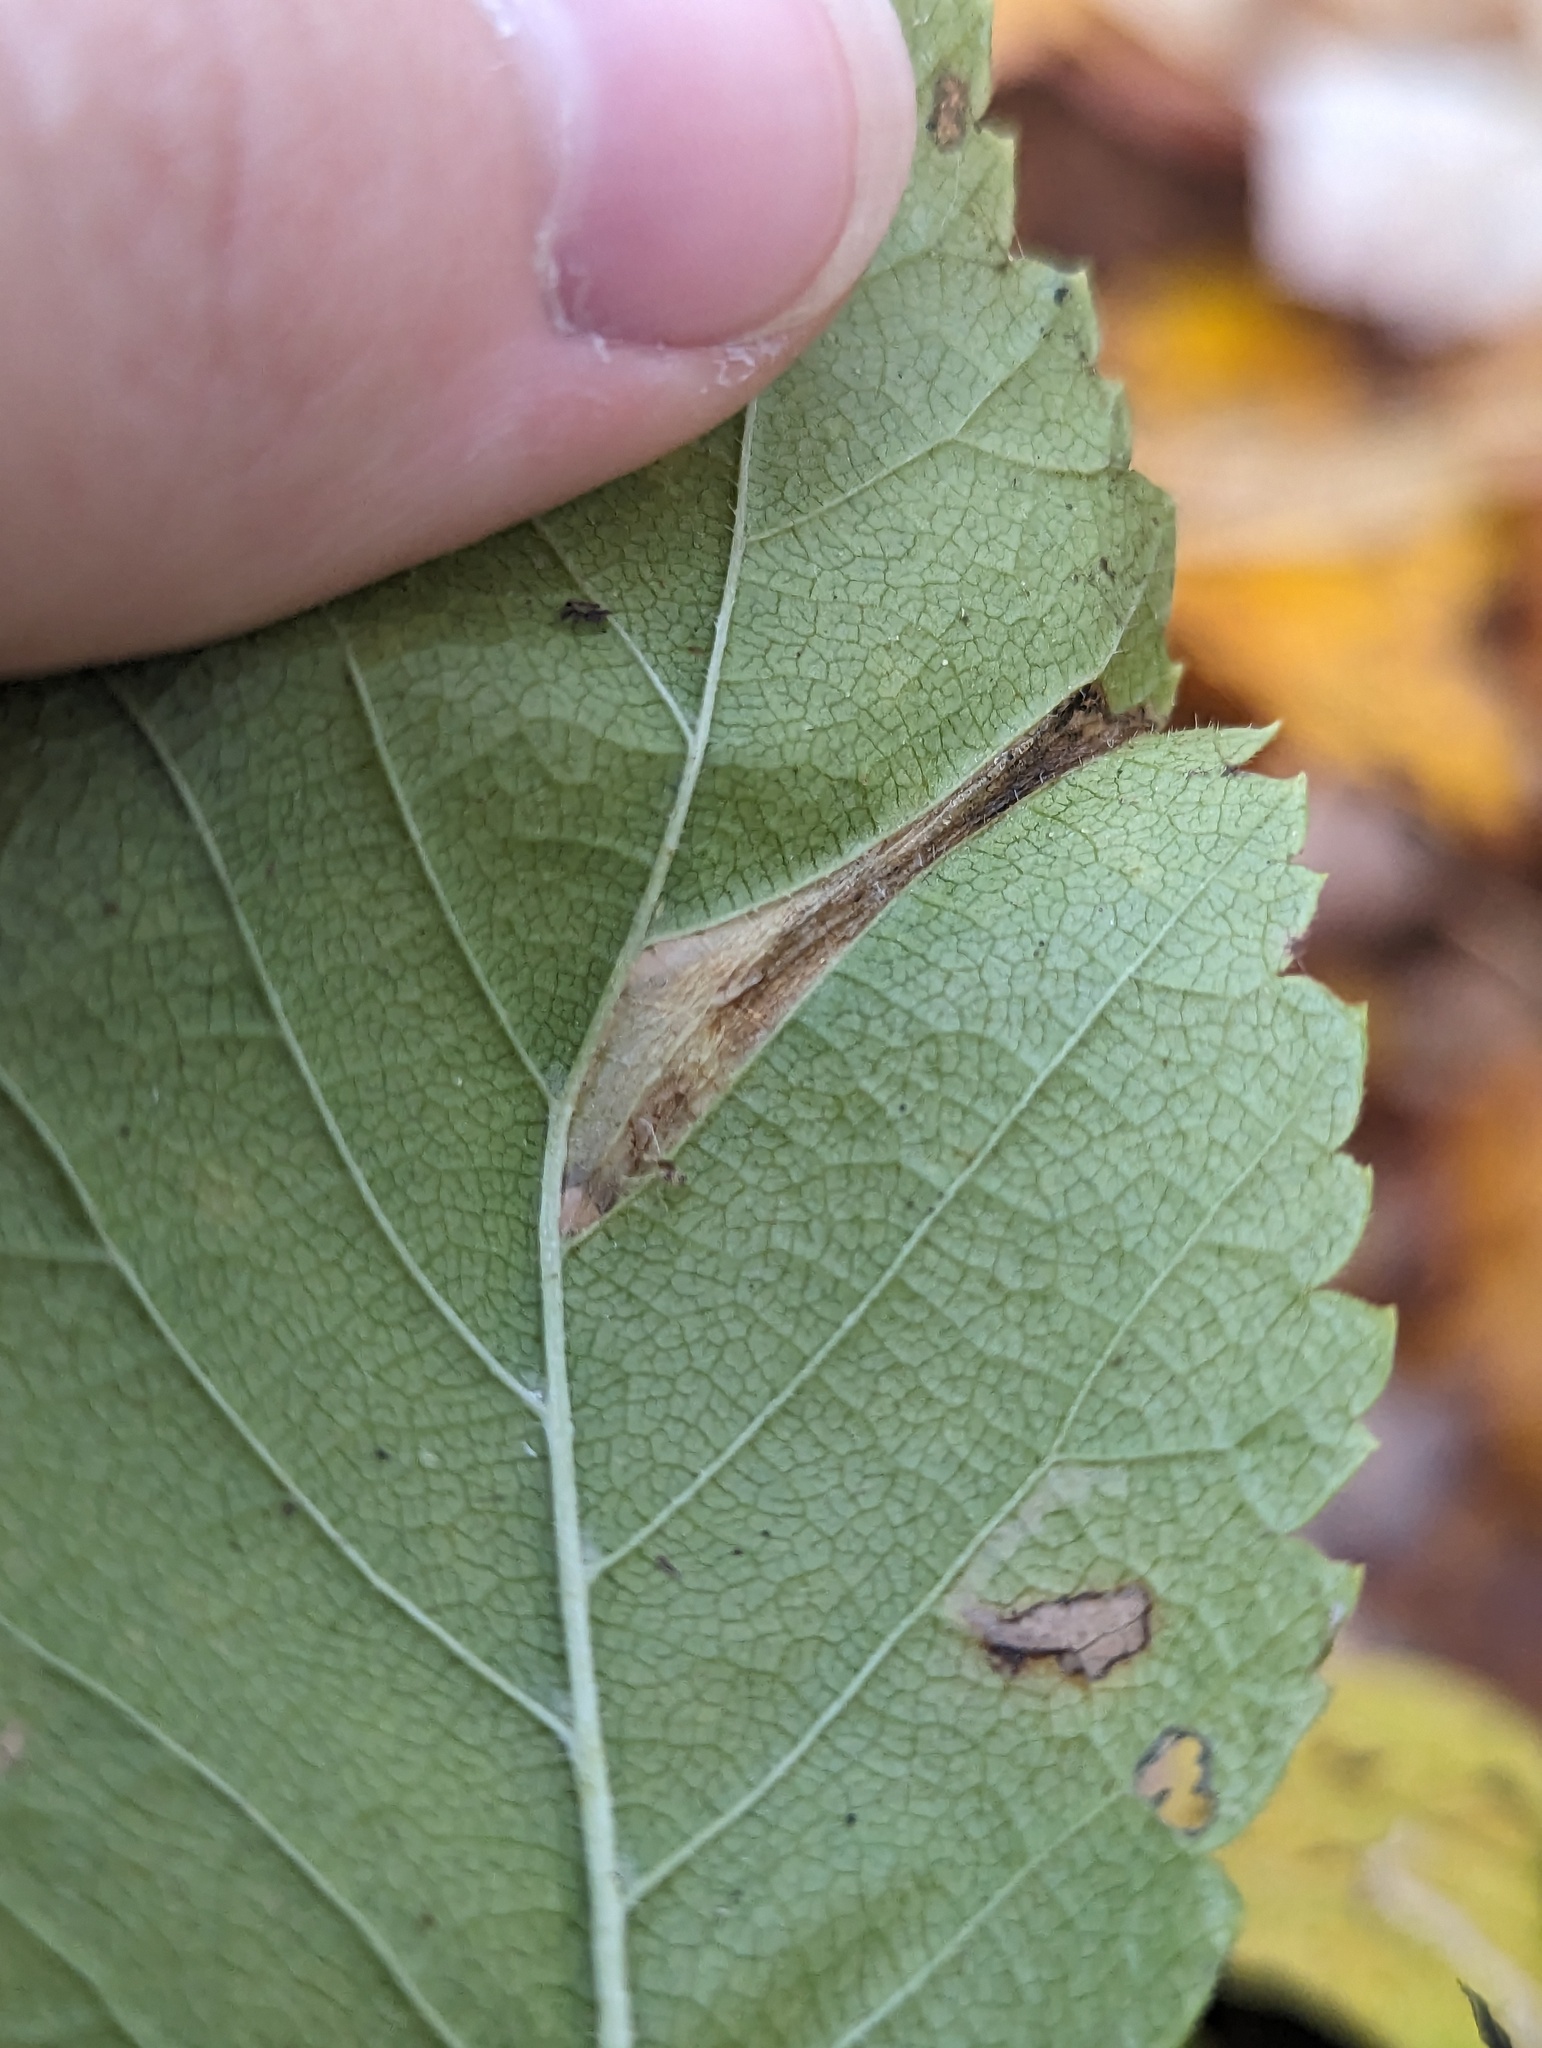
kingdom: Animalia
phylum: Arthropoda
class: Insecta
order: Lepidoptera
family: Gracillariidae
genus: Phyllonorycter
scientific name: Phyllonorycter argentinotella
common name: Golden elm leafminer
